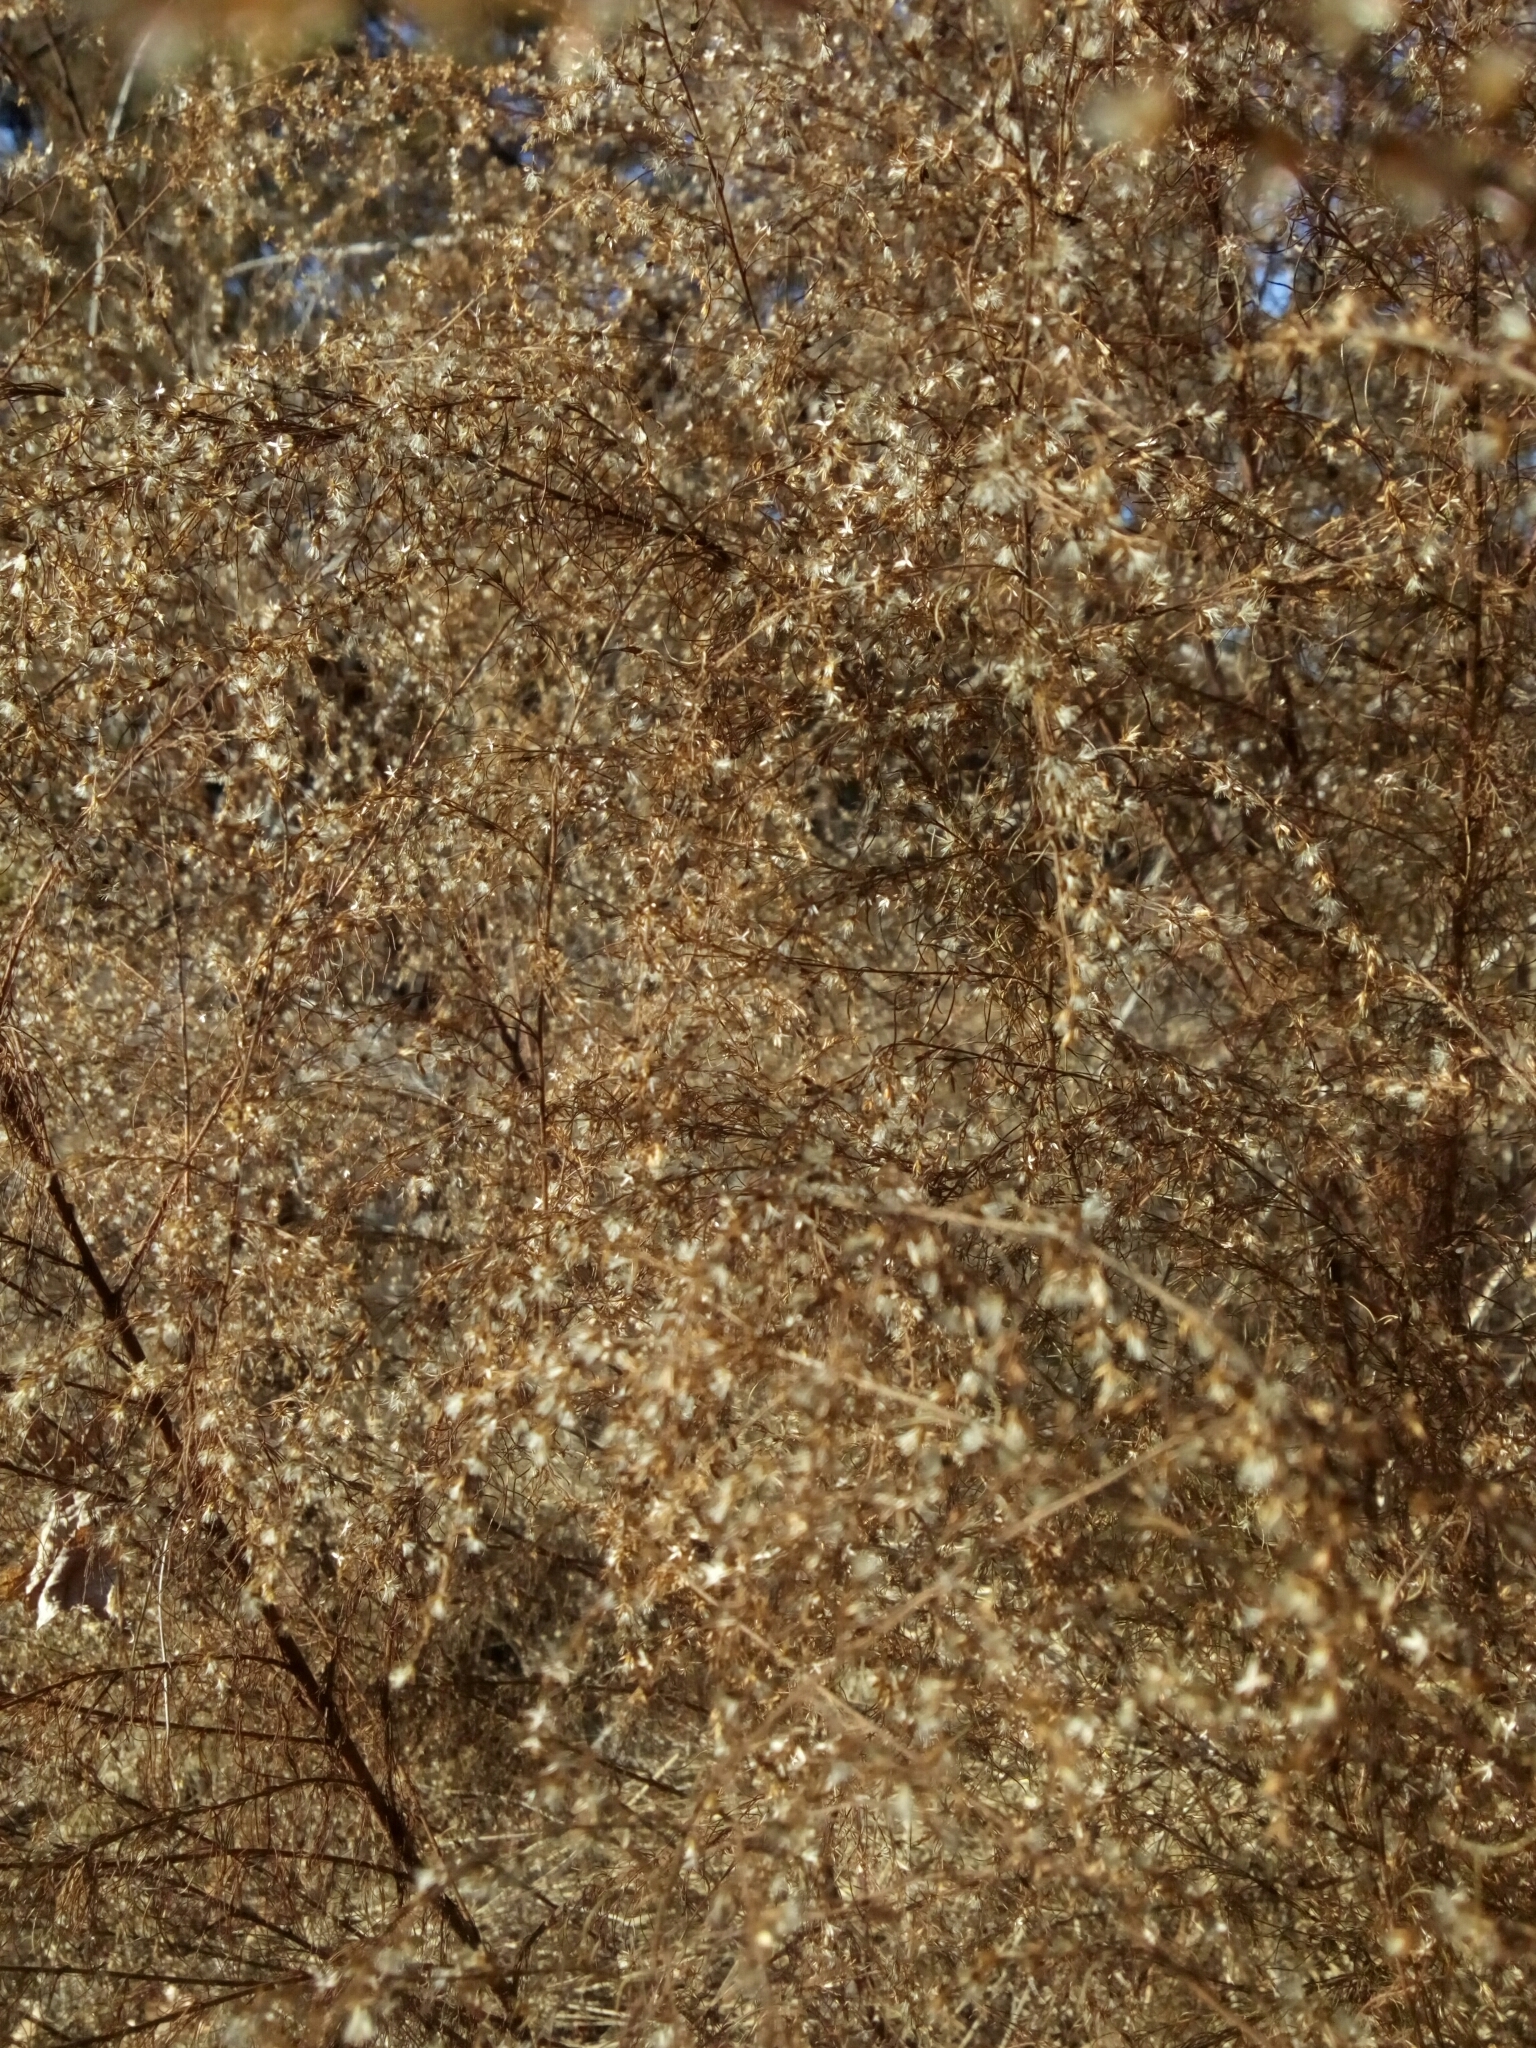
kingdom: Plantae
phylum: Tracheophyta
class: Magnoliopsida
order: Asterales
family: Asteraceae
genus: Eupatorium
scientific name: Eupatorium capillifolium
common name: Dog-fennel
